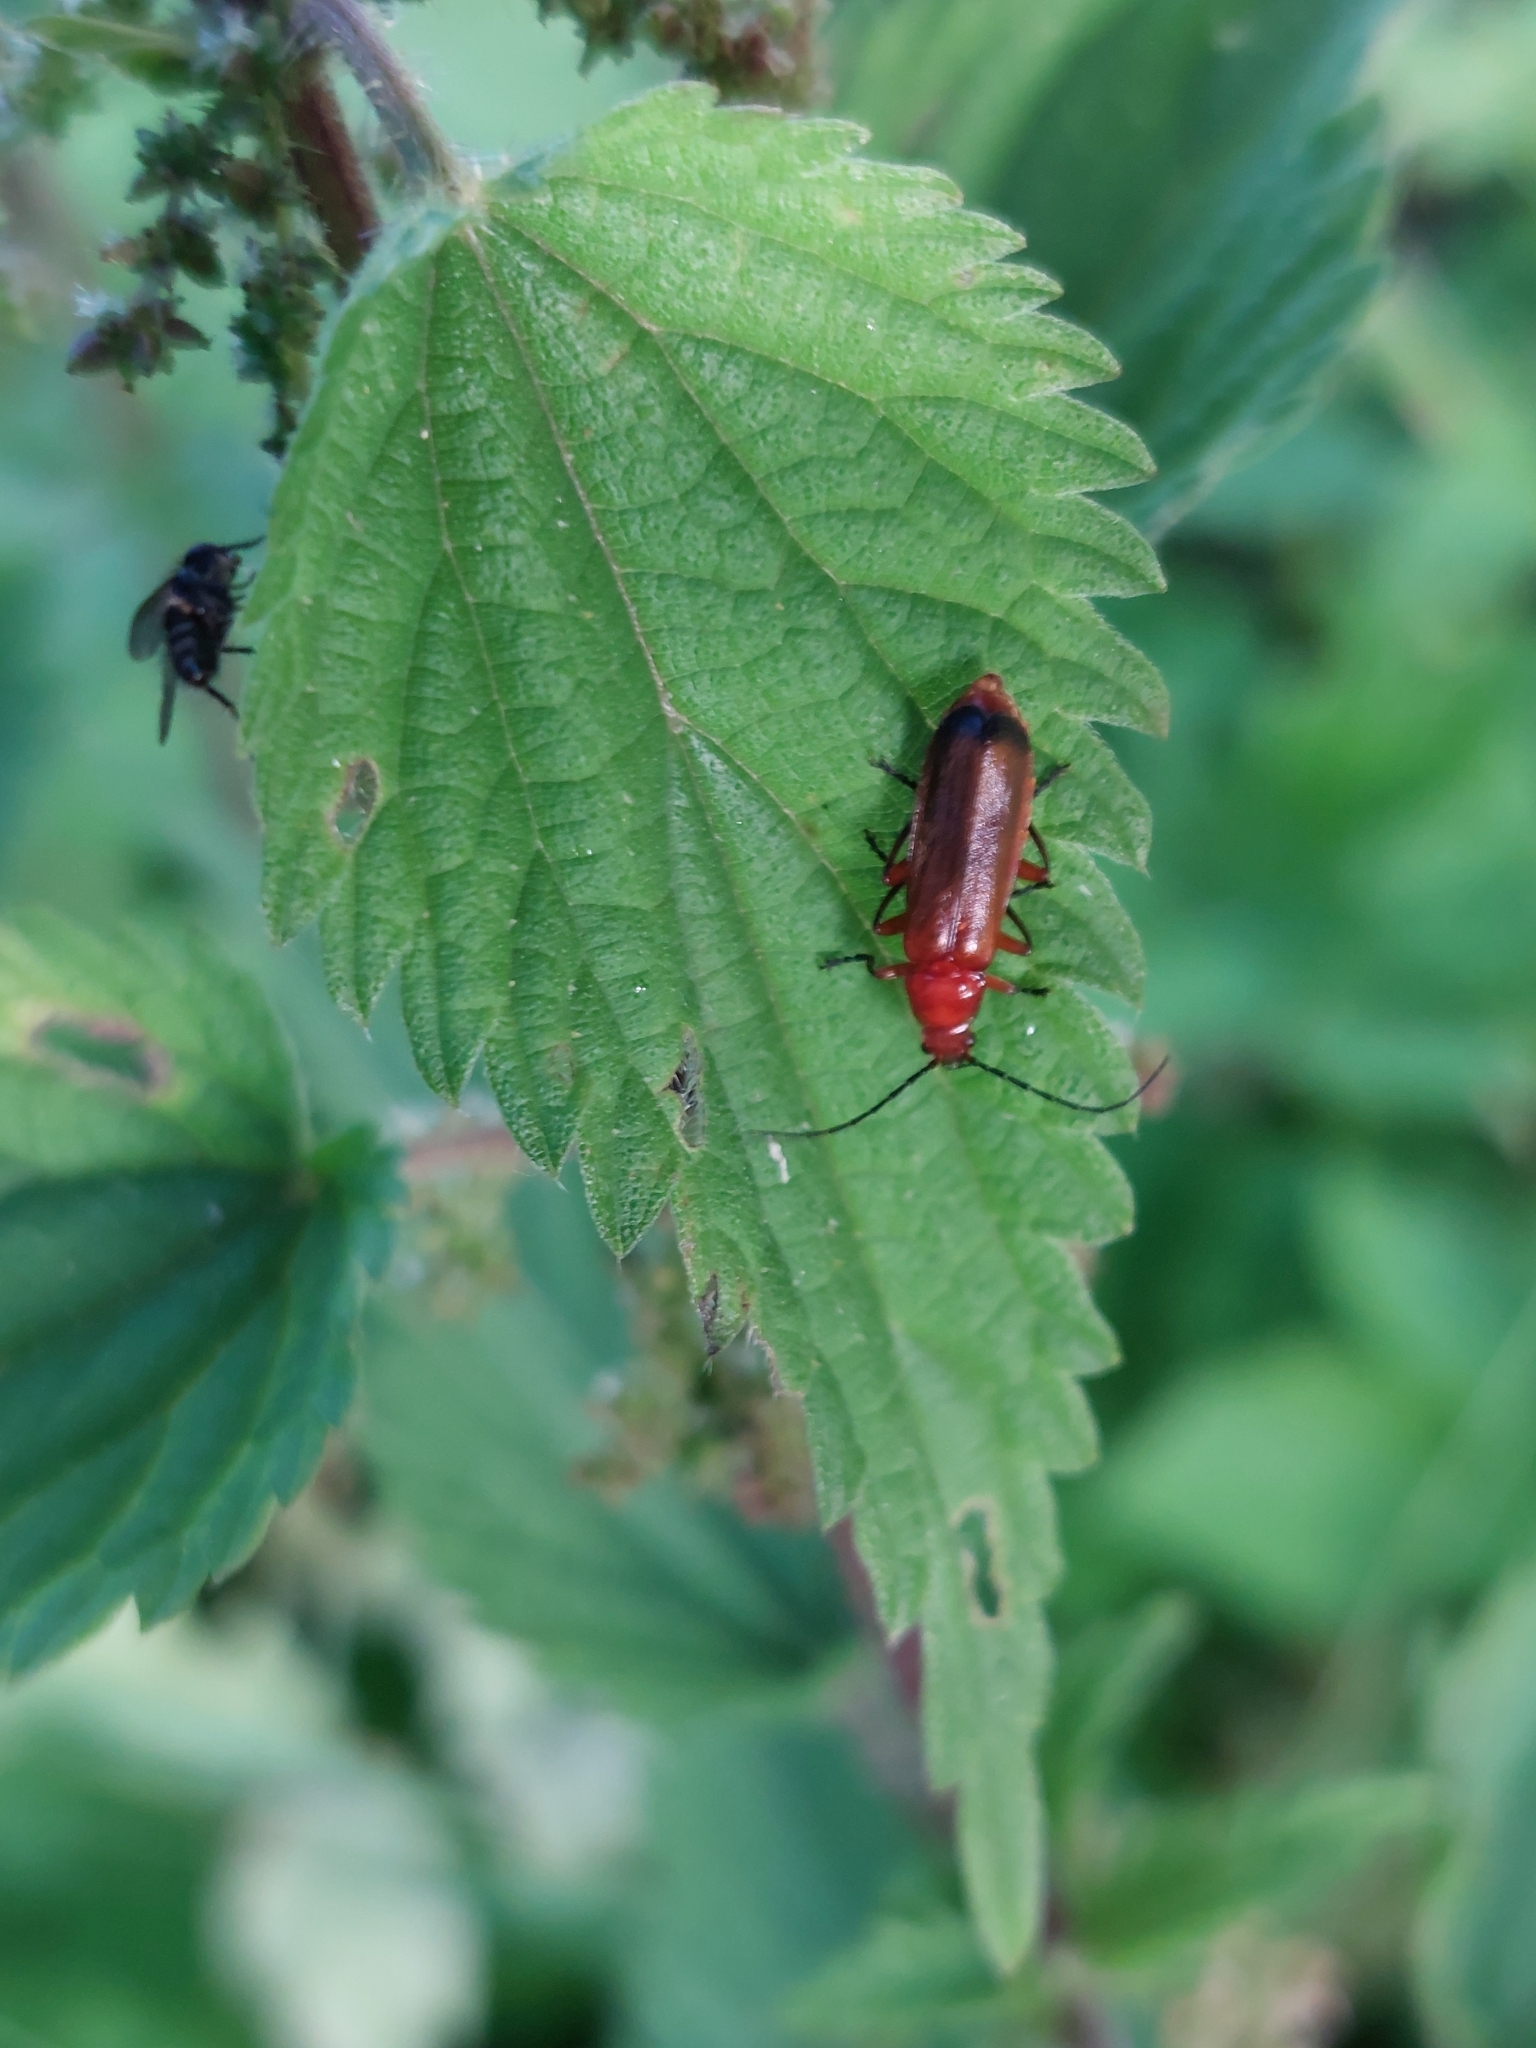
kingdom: Animalia
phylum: Arthropoda
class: Insecta
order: Coleoptera
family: Cantharidae
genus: Rhagonycha
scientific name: Rhagonycha fulva
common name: Common red soldier beetle
